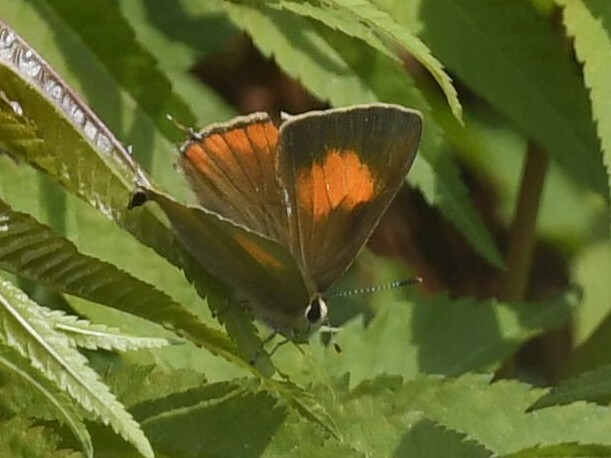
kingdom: Animalia
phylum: Arthropoda
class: Insecta
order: Lepidoptera
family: Lycaenidae
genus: Rapala
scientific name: Rapala selira
